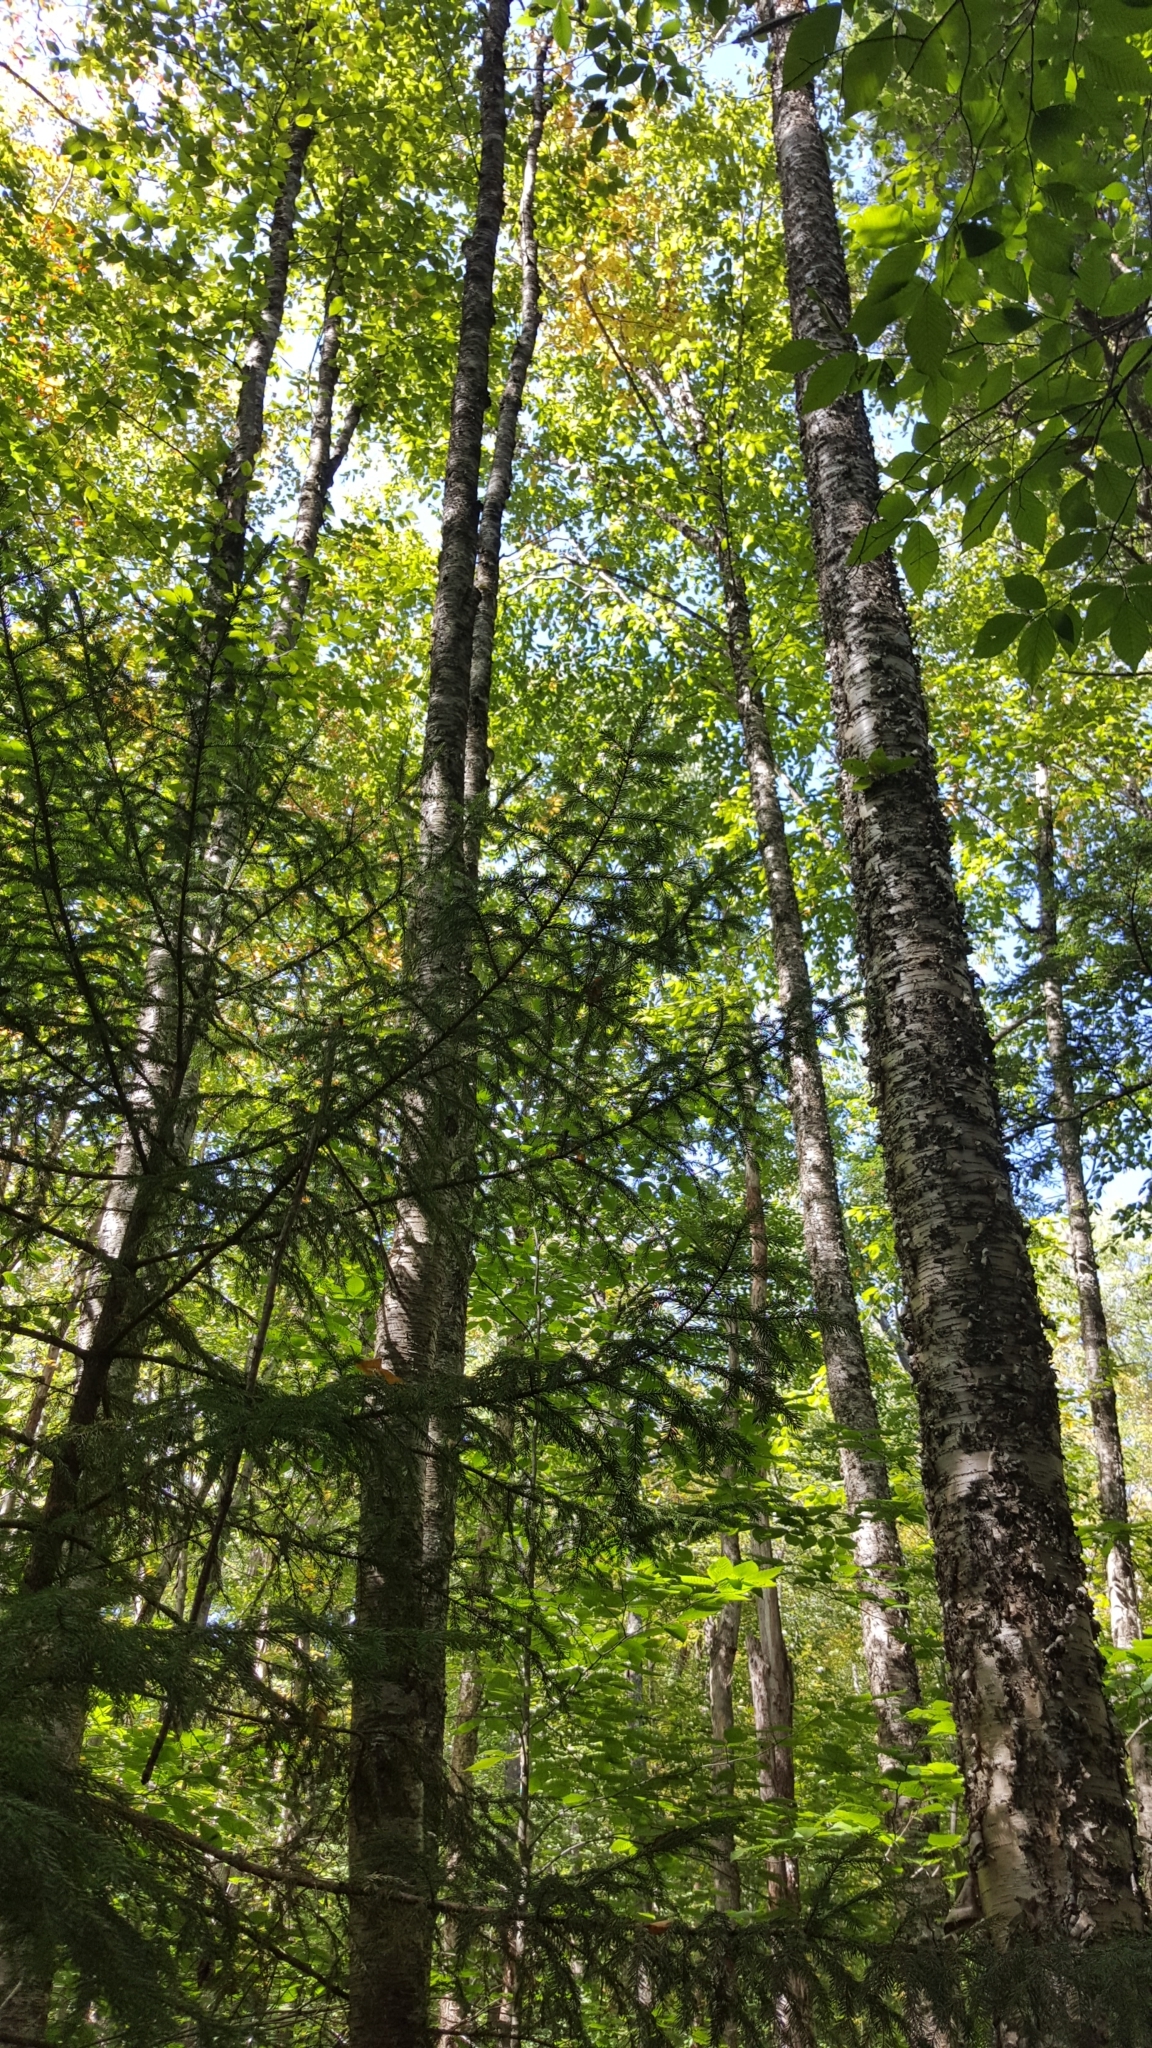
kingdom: Plantae
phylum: Tracheophyta
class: Magnoliopsida
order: Fagales
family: Betulaceae
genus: Betula
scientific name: Betula alleghaniensis
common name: Yellow birch
